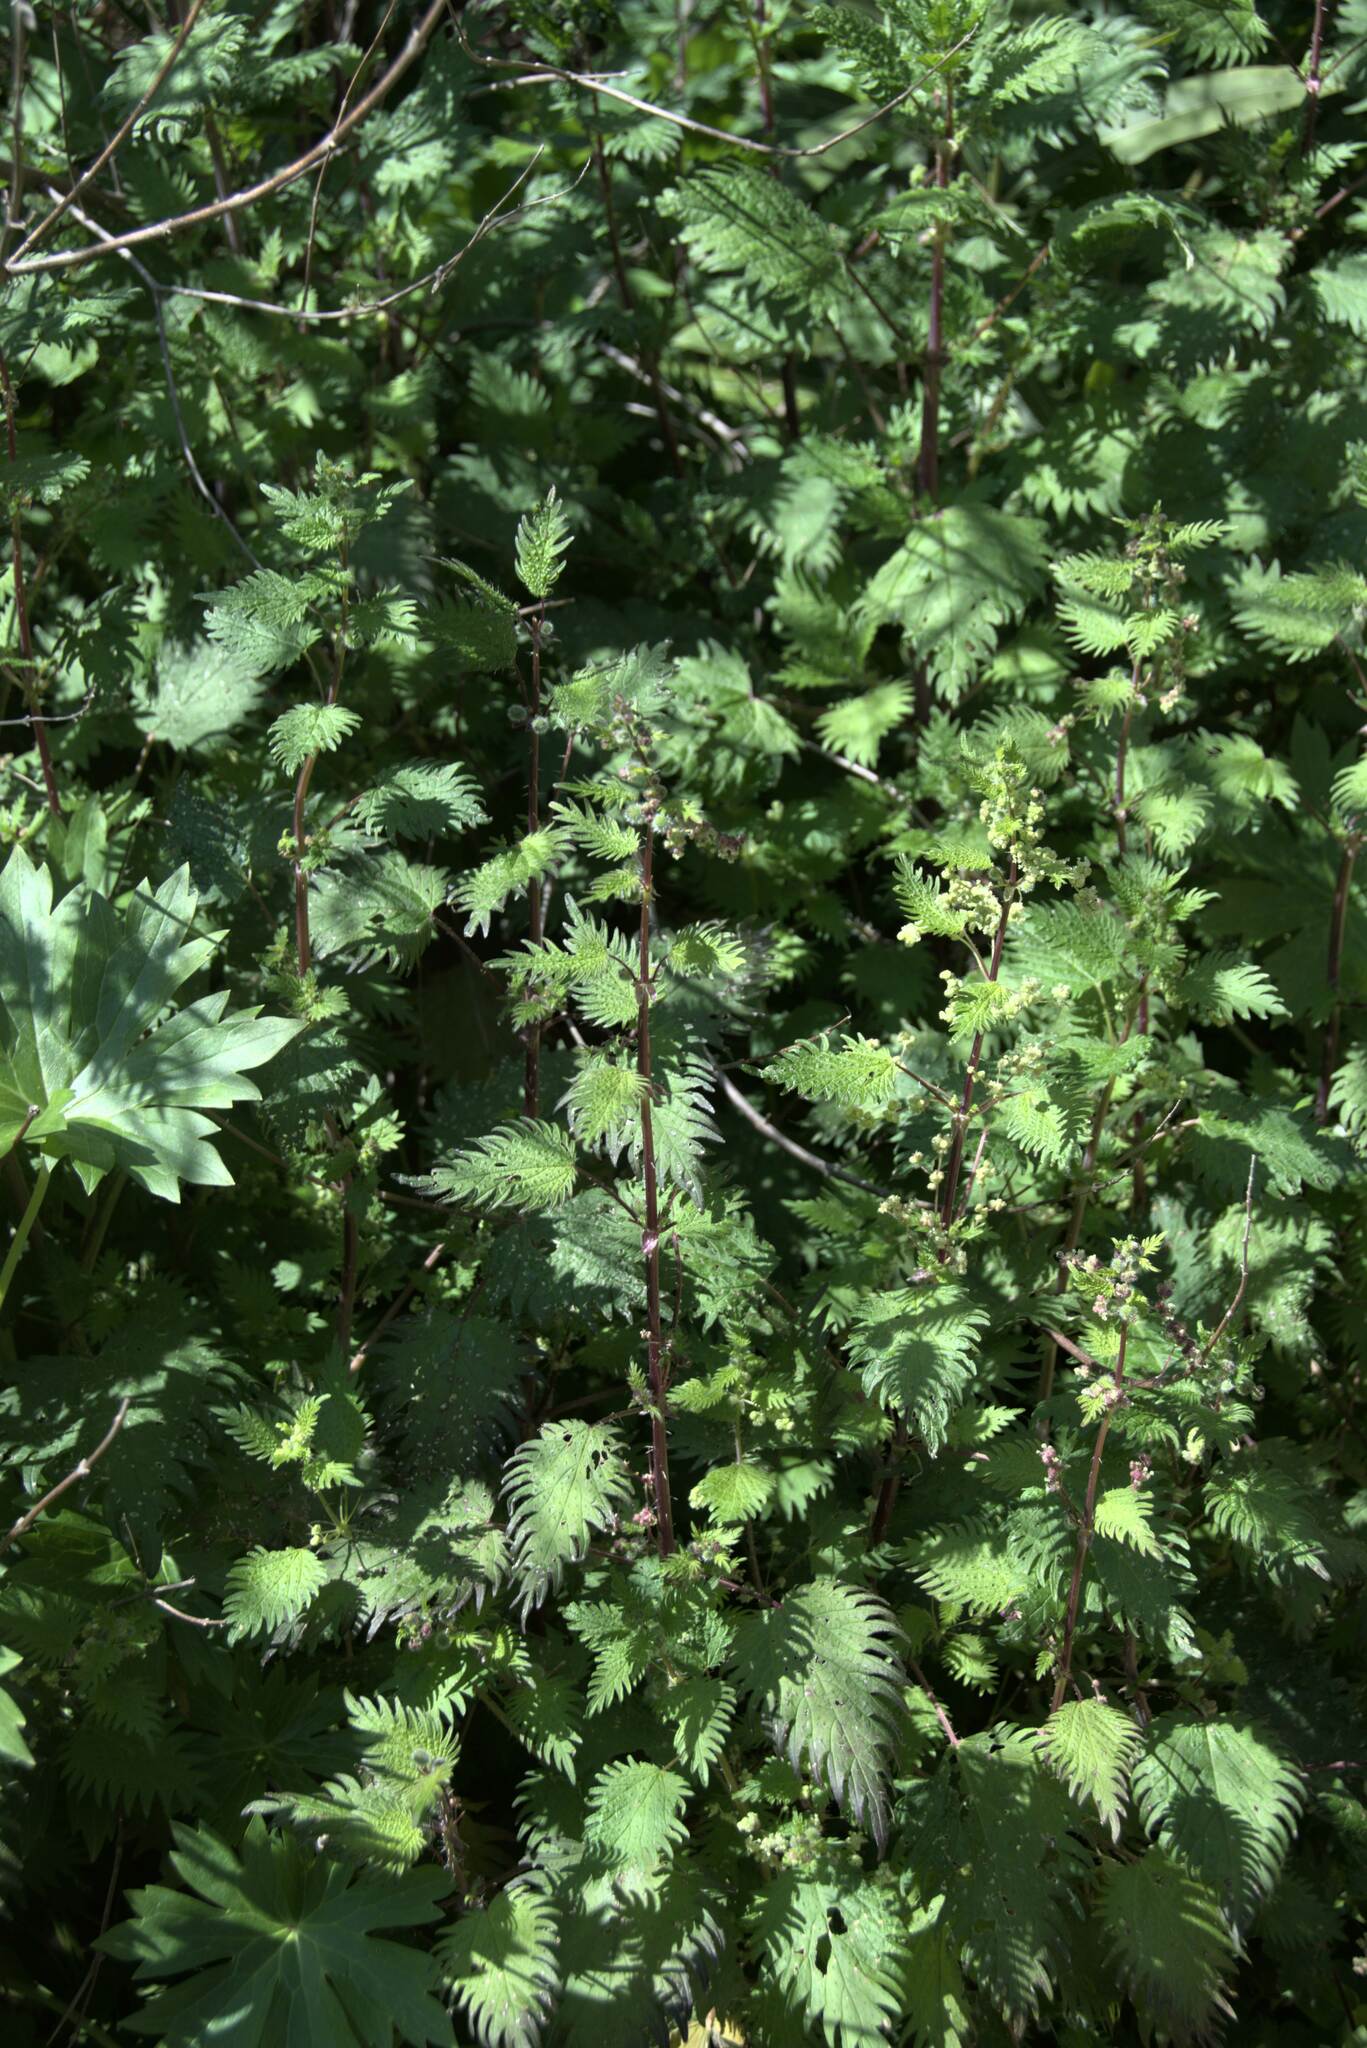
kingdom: Plantae
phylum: Tracheophyta
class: Magnoliopsida
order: Rosales
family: Urticaceae
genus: Urtica
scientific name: Urtica pilulifera
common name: Roman nettle
